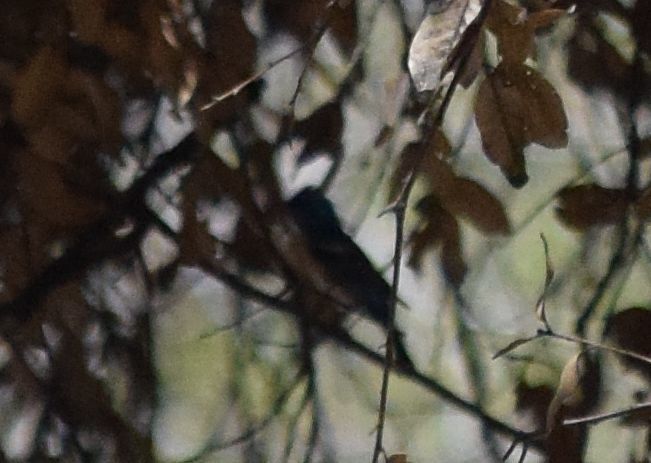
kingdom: Animalia
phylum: Chordata
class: Aves
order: Passeriformes
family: Cardinalidae
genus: Passerina
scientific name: Passerina amoena
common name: Lazuli bunting
